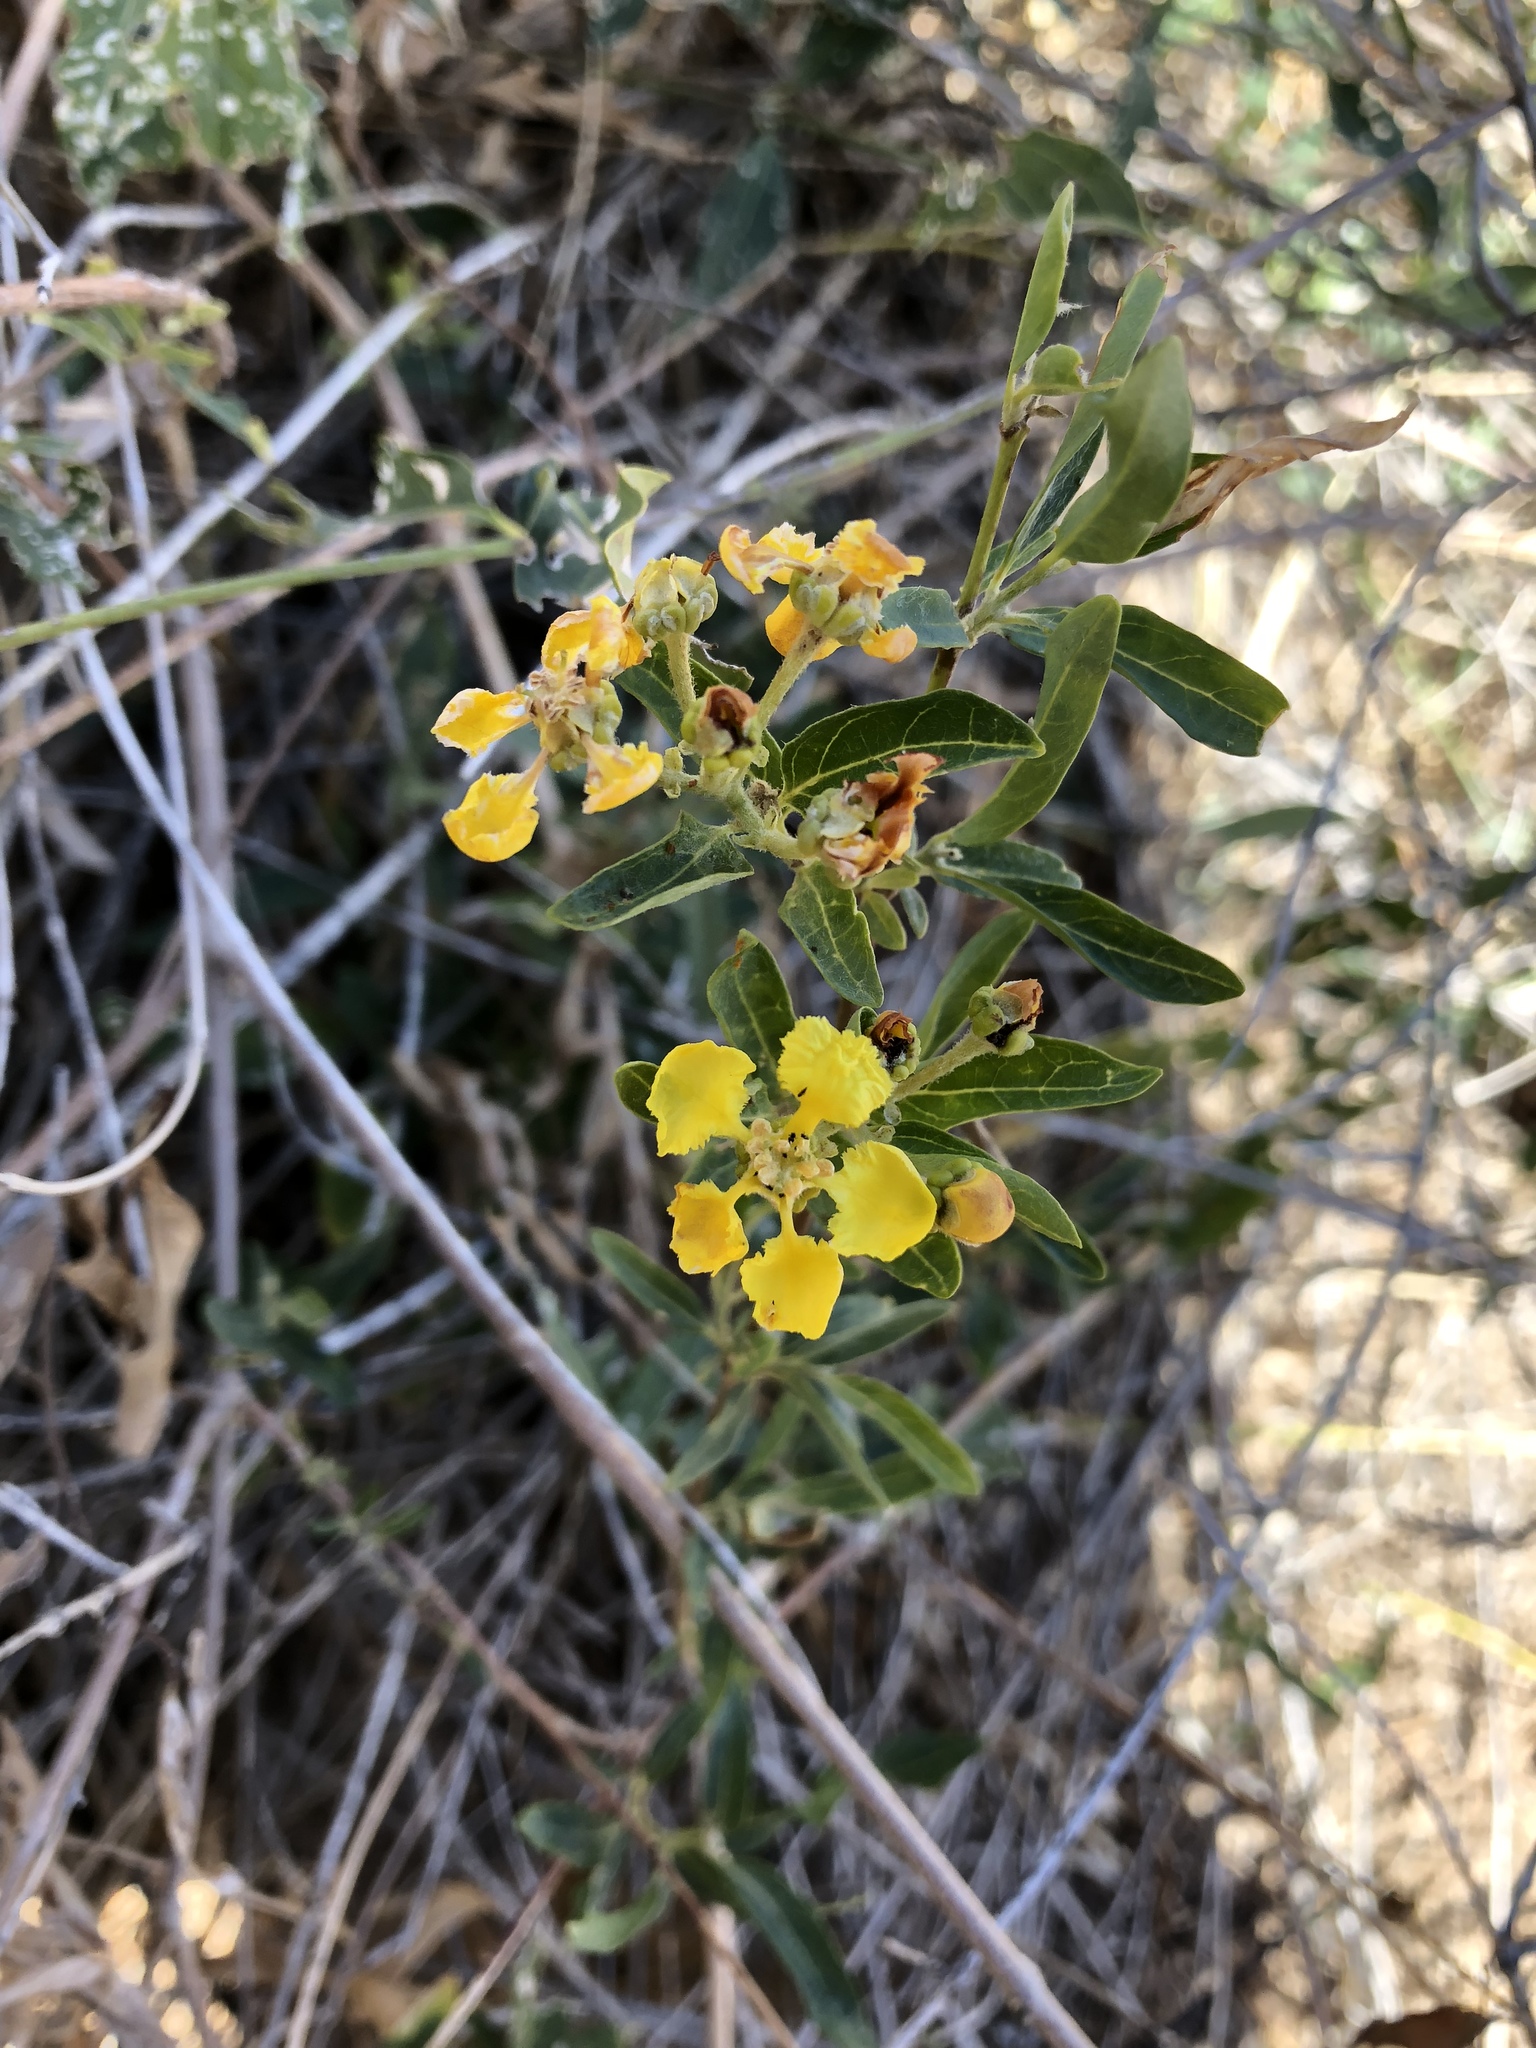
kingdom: Plantae
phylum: Tracheophyta
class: Magnoliopsida
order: Malpighiales
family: Malpighiaceae
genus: Callaeum
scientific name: Callaeum macropterum
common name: Mexican butterfly-vine
